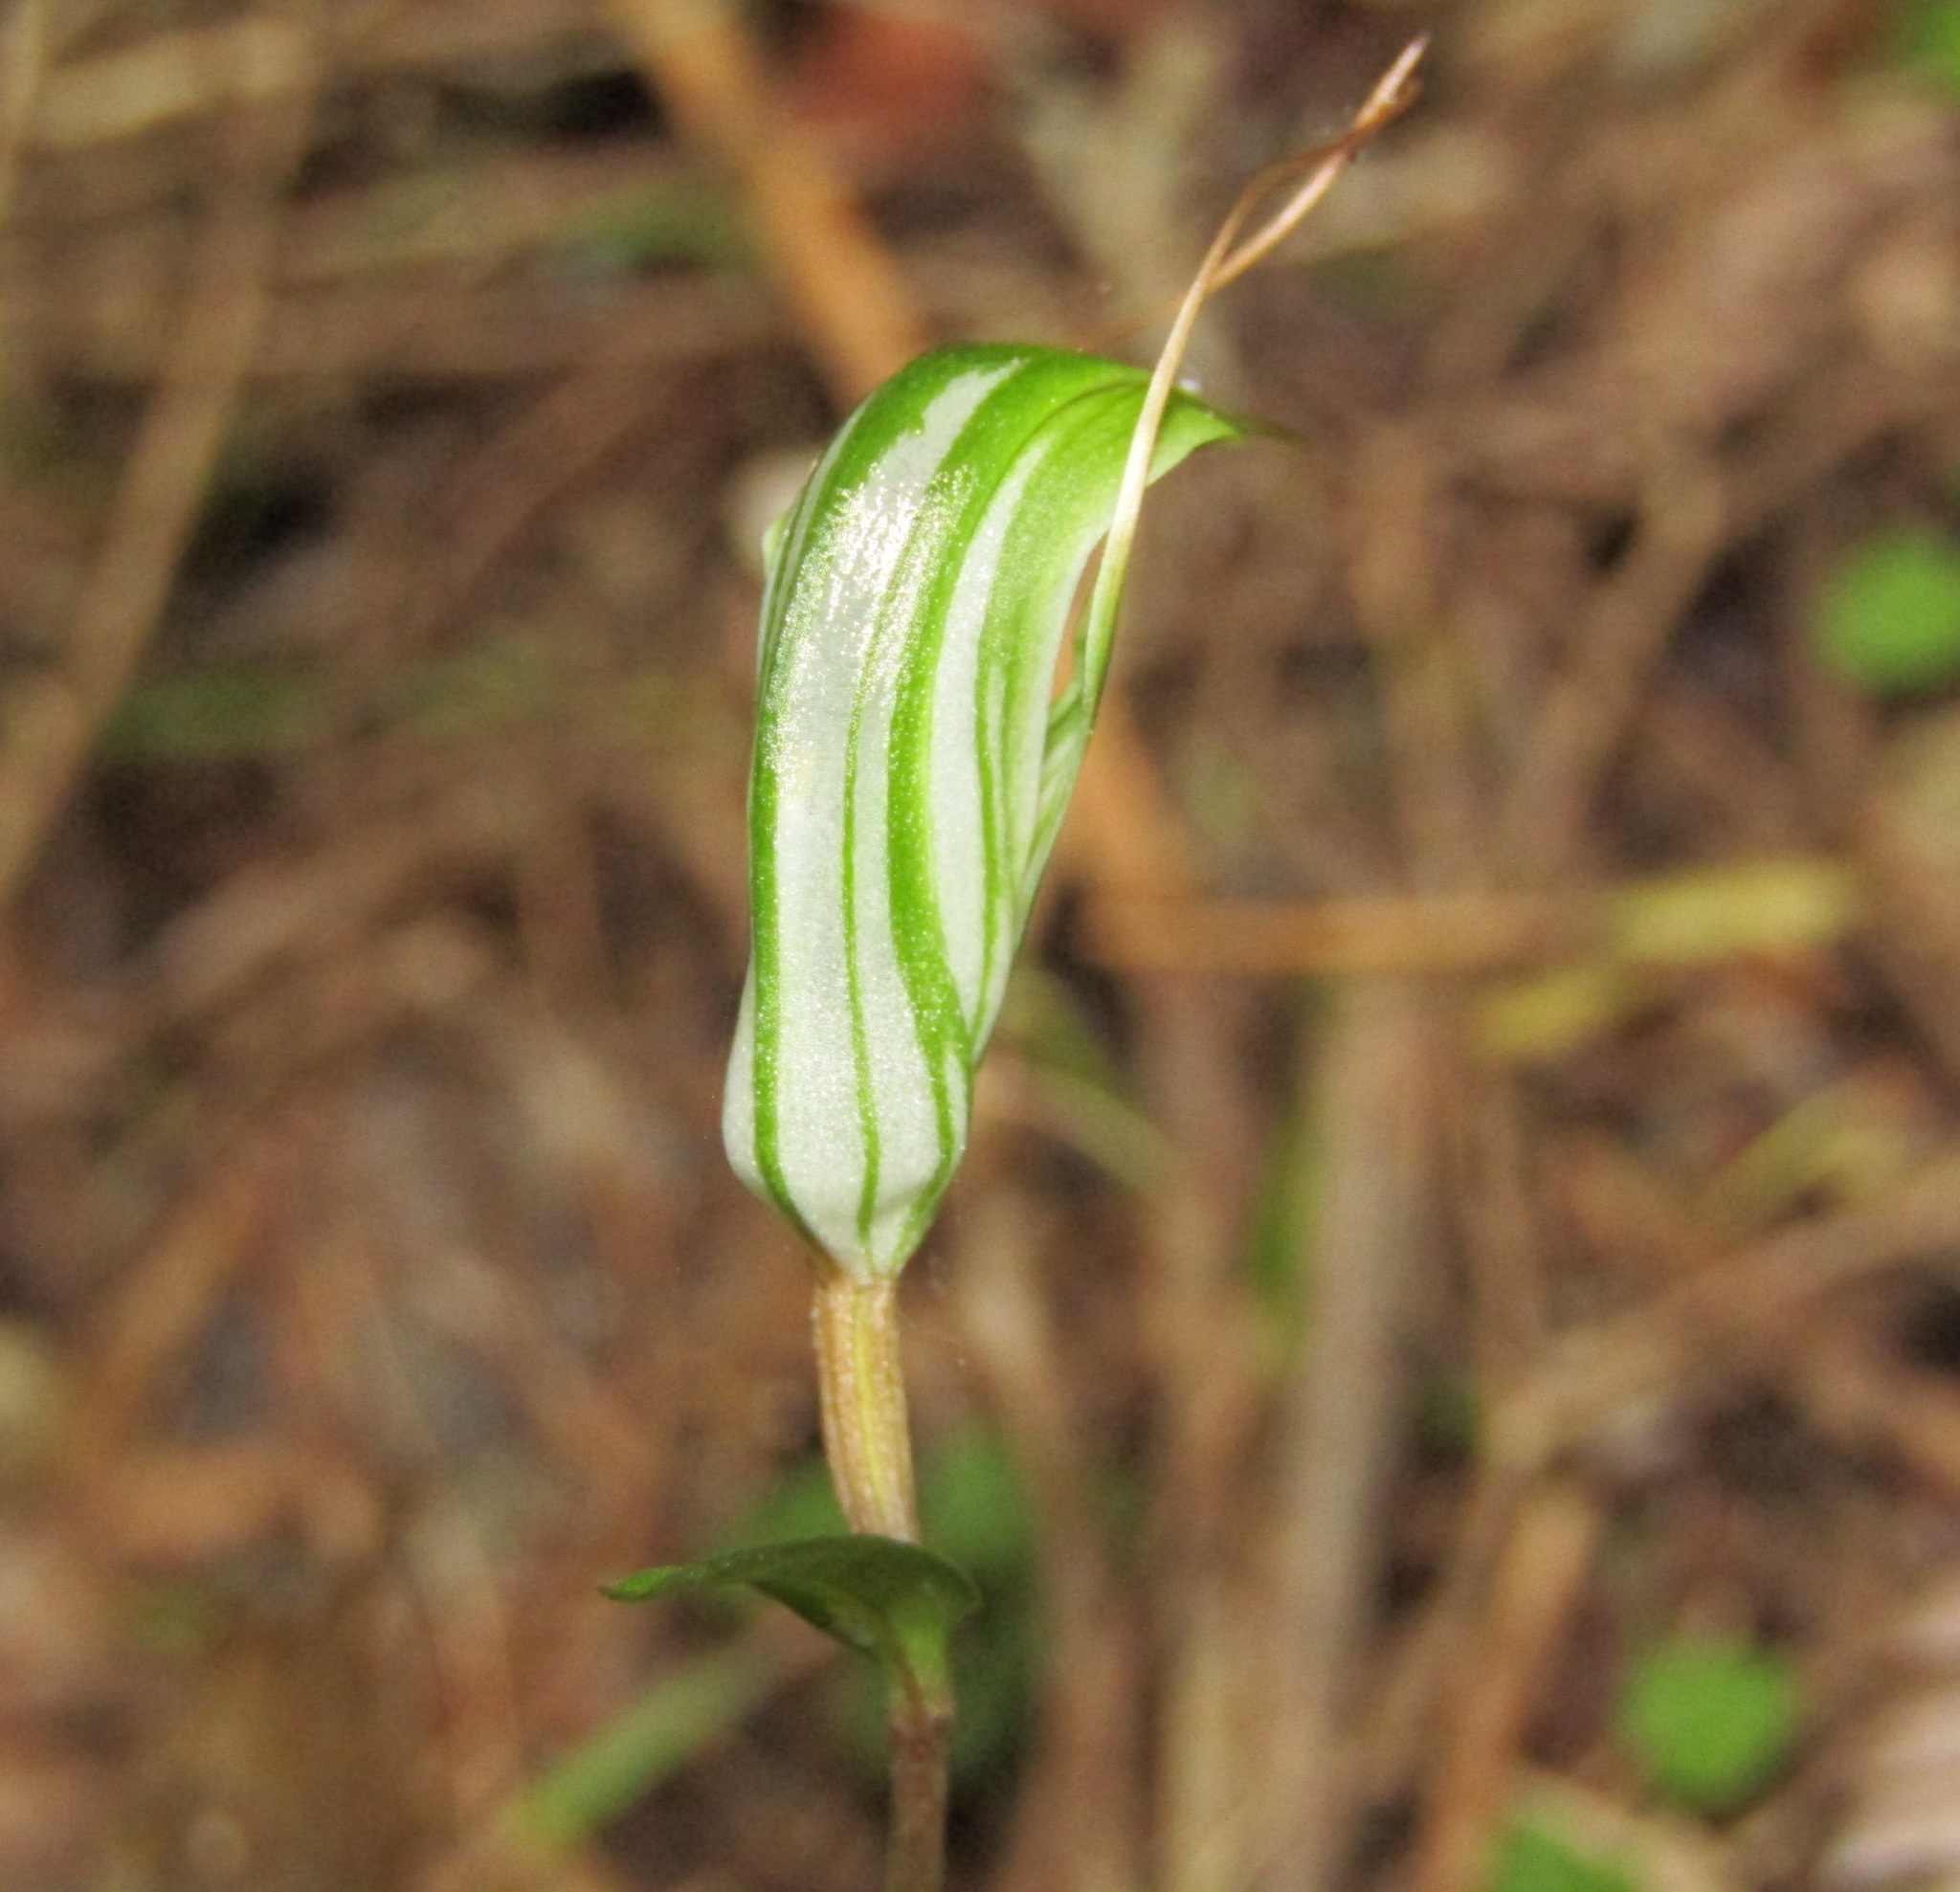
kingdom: Plantae
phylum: Tracheophyta
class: Liliopsida
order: Asparagales
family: Orchidaceae
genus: Pterostylis
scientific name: Pterostylis alobula
